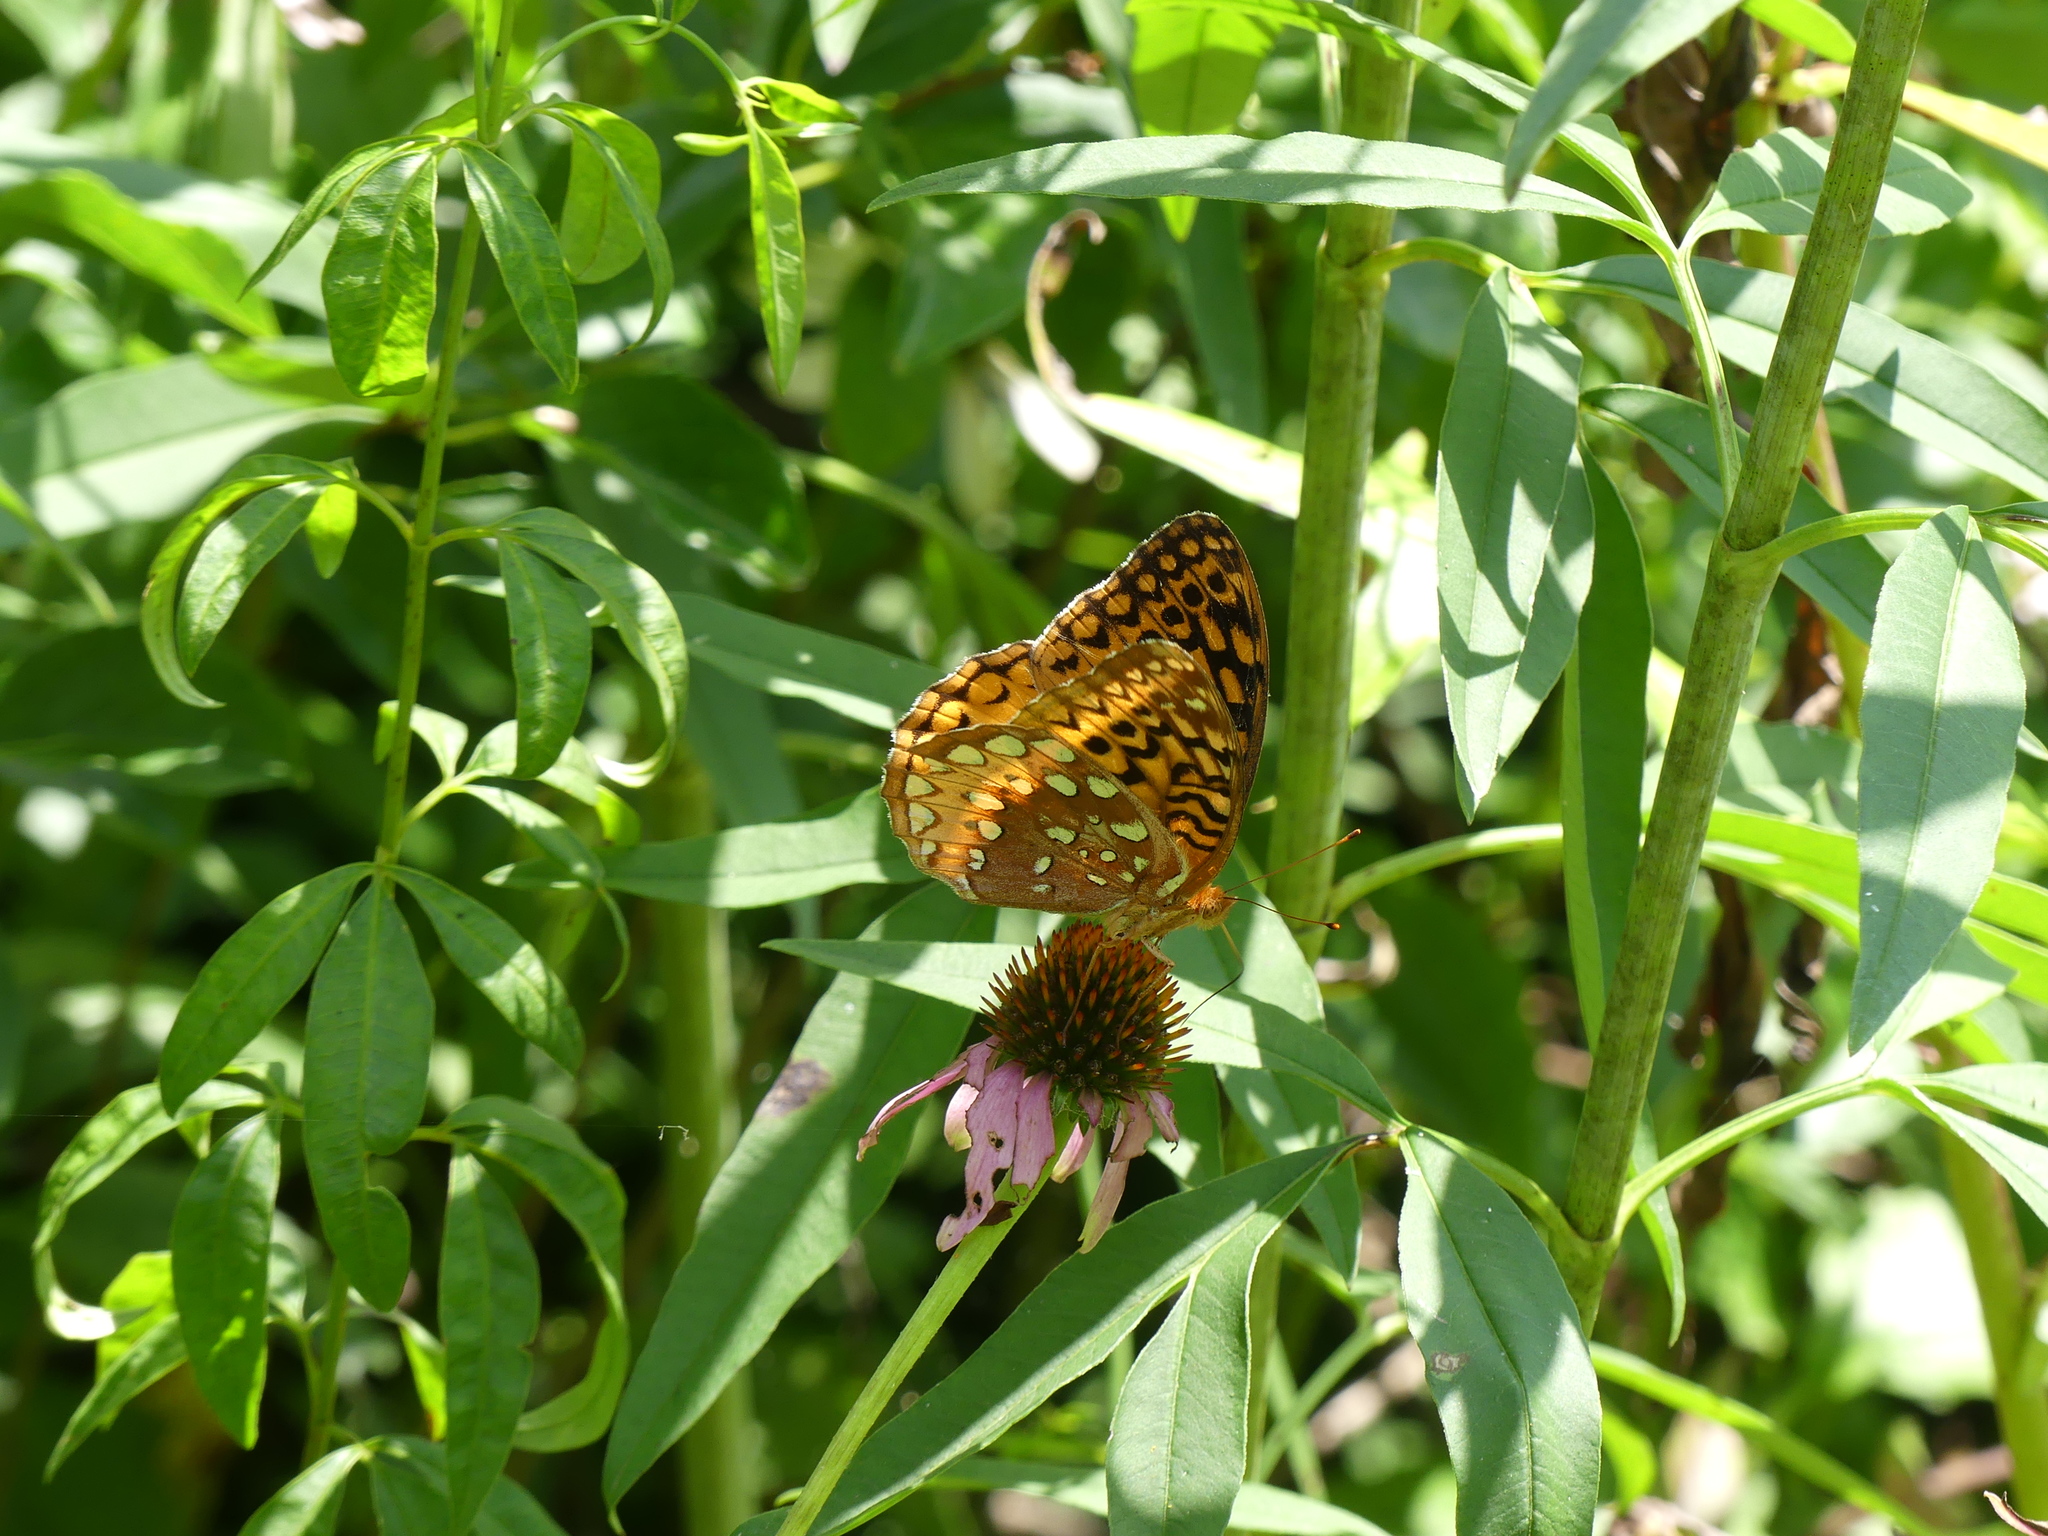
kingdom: Animalia
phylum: Arthropoda
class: Insecta
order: Lepidoptera
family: Nymphalidae
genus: Speyeria
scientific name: Speyeria cybele
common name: Great spangled fritillary
